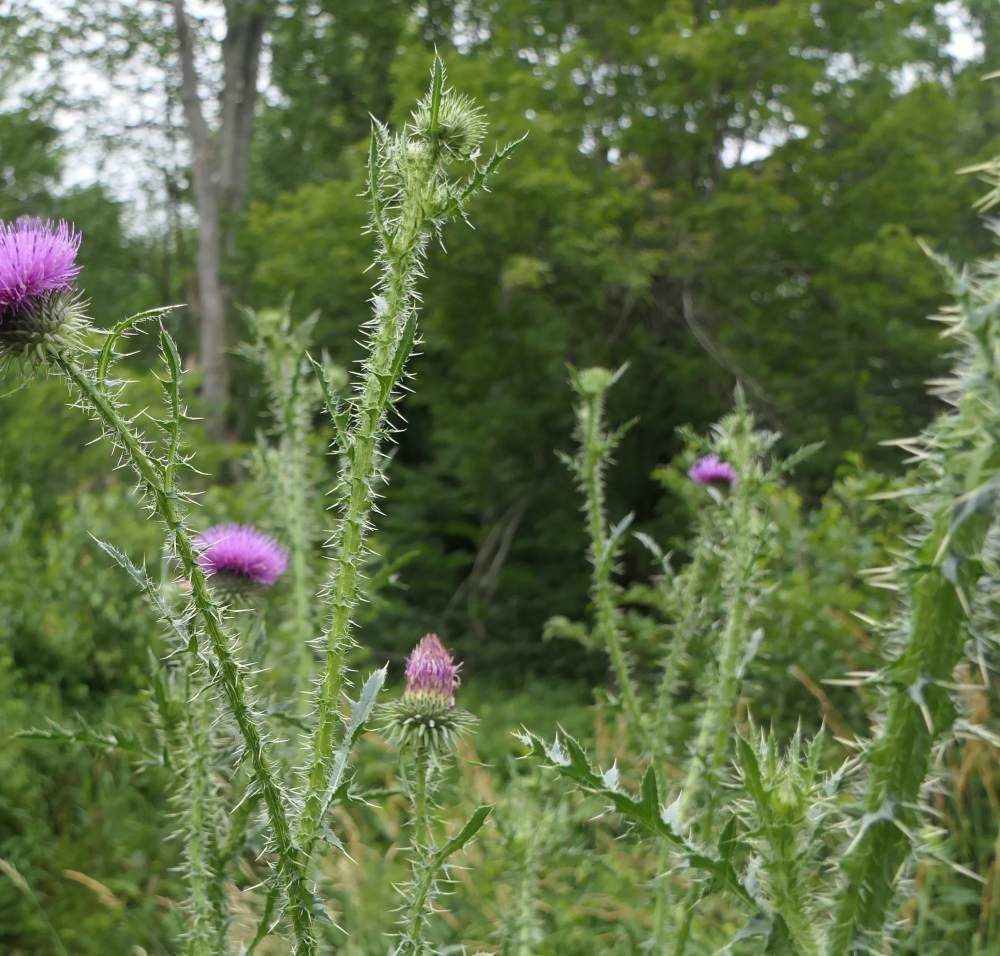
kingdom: Plantae
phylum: Tracheophyta
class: Magnoliopsida
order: Asterales
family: Asteraceae
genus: Carduus
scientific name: Carduus acanthoides
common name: Plumeless thistle
